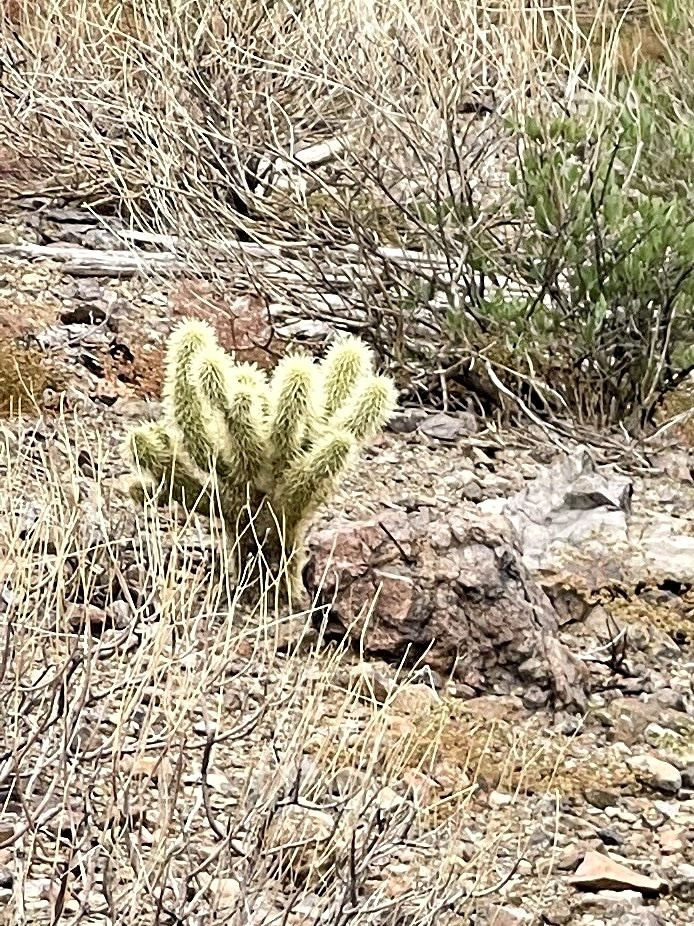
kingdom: Plantae
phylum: Tracheophyta
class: Magnoliopsida
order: Caryophyllales
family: Cactaceae
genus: Cylindropuntia
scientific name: Cylindropuntia fosbergii
